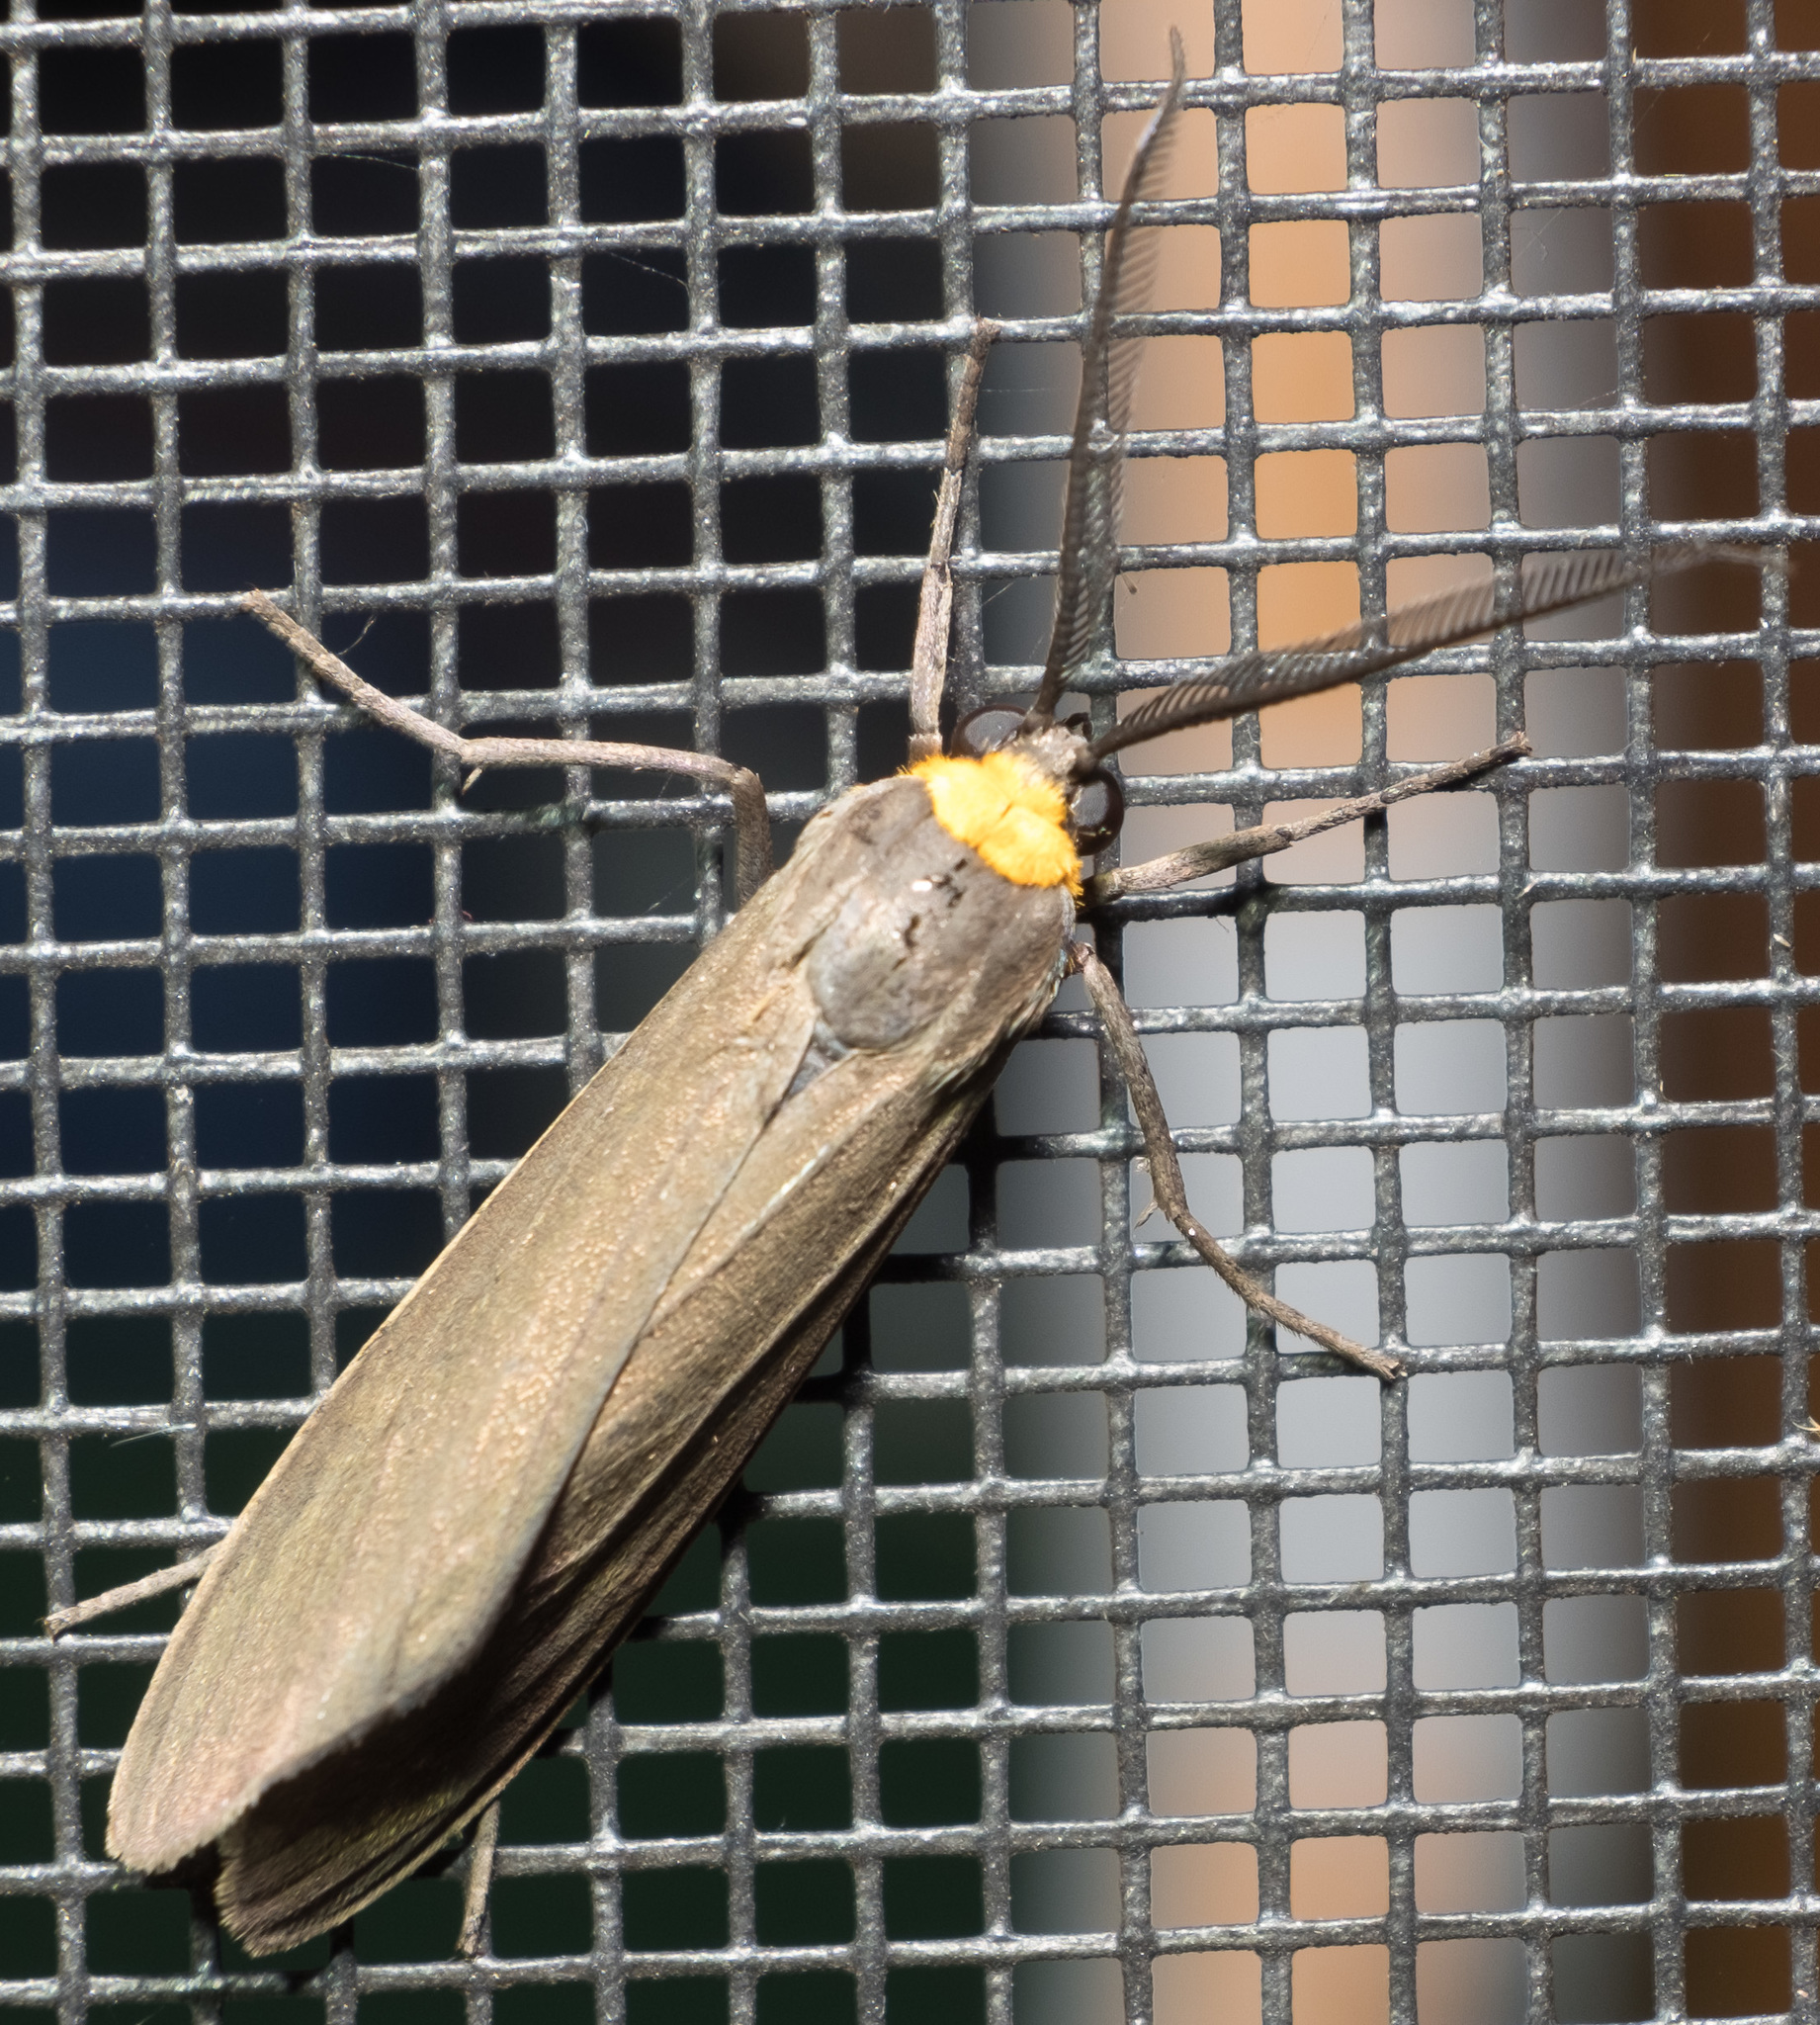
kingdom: Animalia
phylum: Arthropoda
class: Insecta
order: Lepidoptera
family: Erebidae
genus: Cisseps
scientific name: Cisseps fulvicollis
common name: Yellow-collared scape moth
